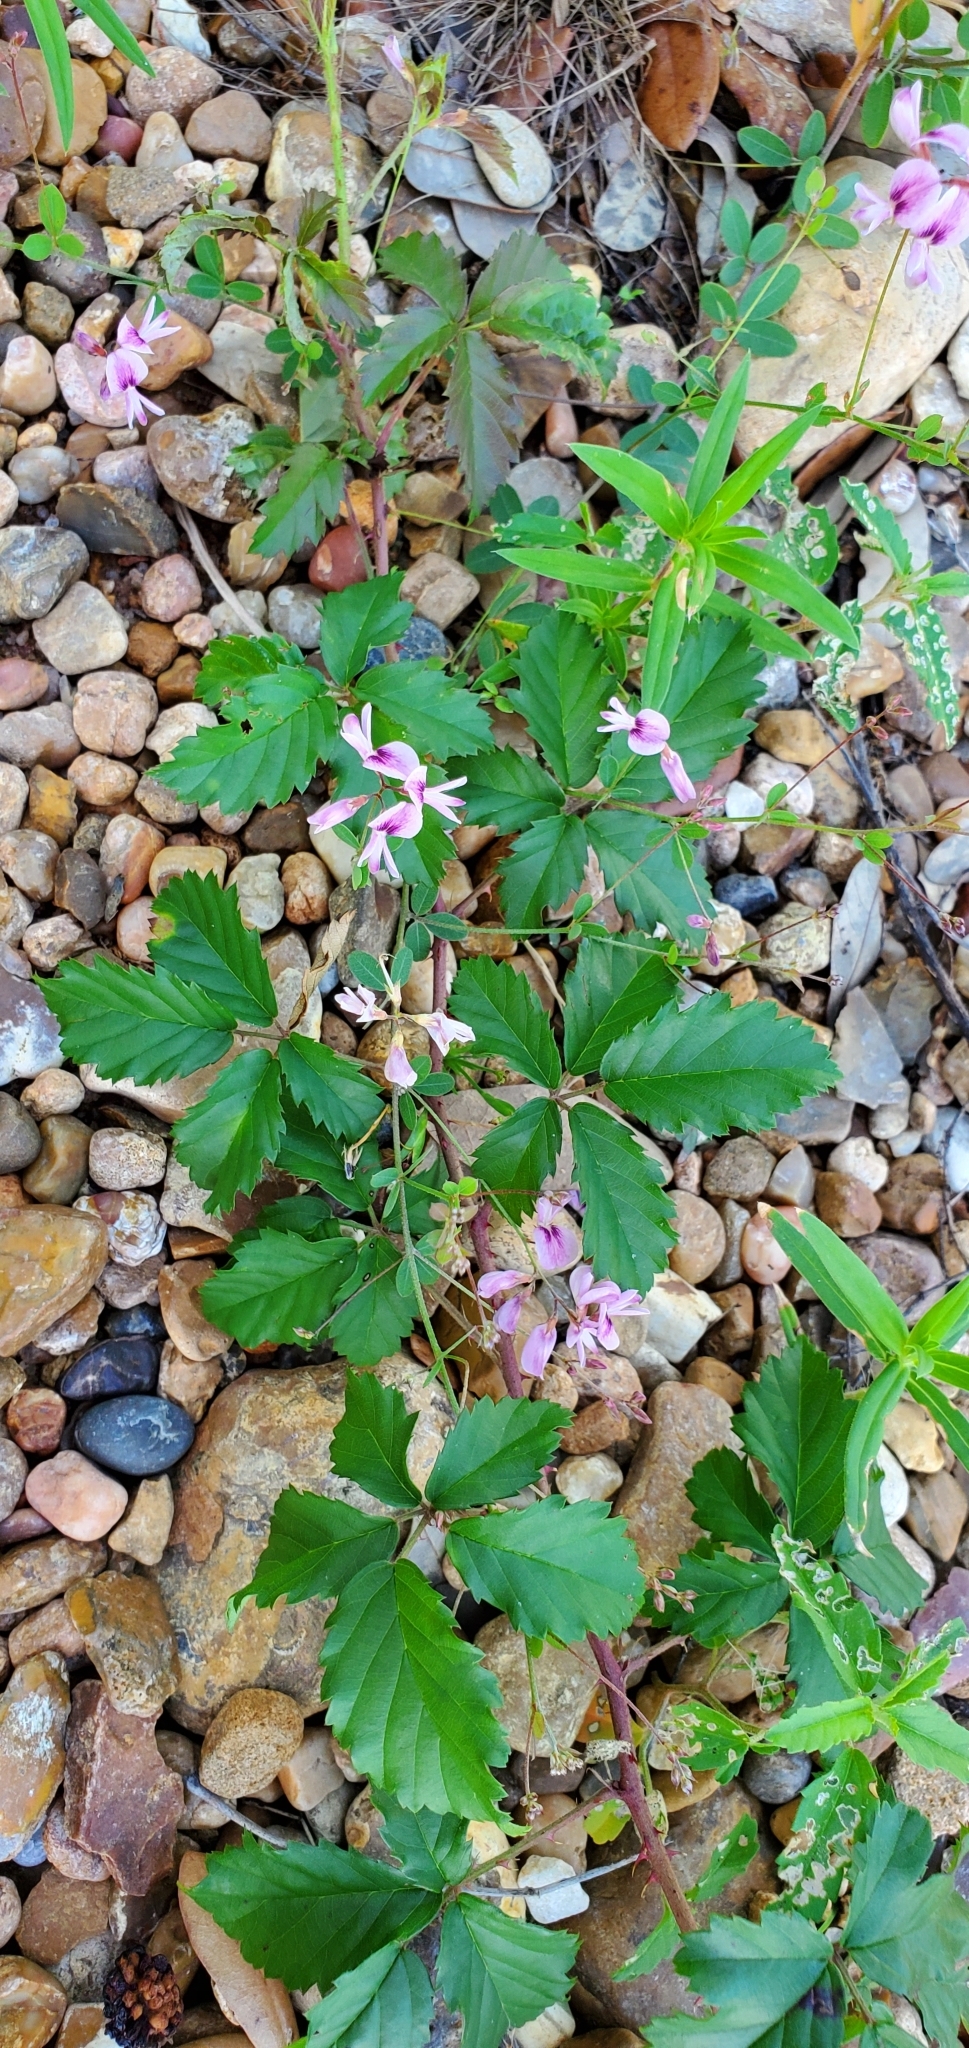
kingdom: Plantae
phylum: Tracheophyta
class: Magnoliopsida
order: Fabales
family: Fabaceae
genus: Lespedeza
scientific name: Lespedeza repens
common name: Creeping bush-clover
